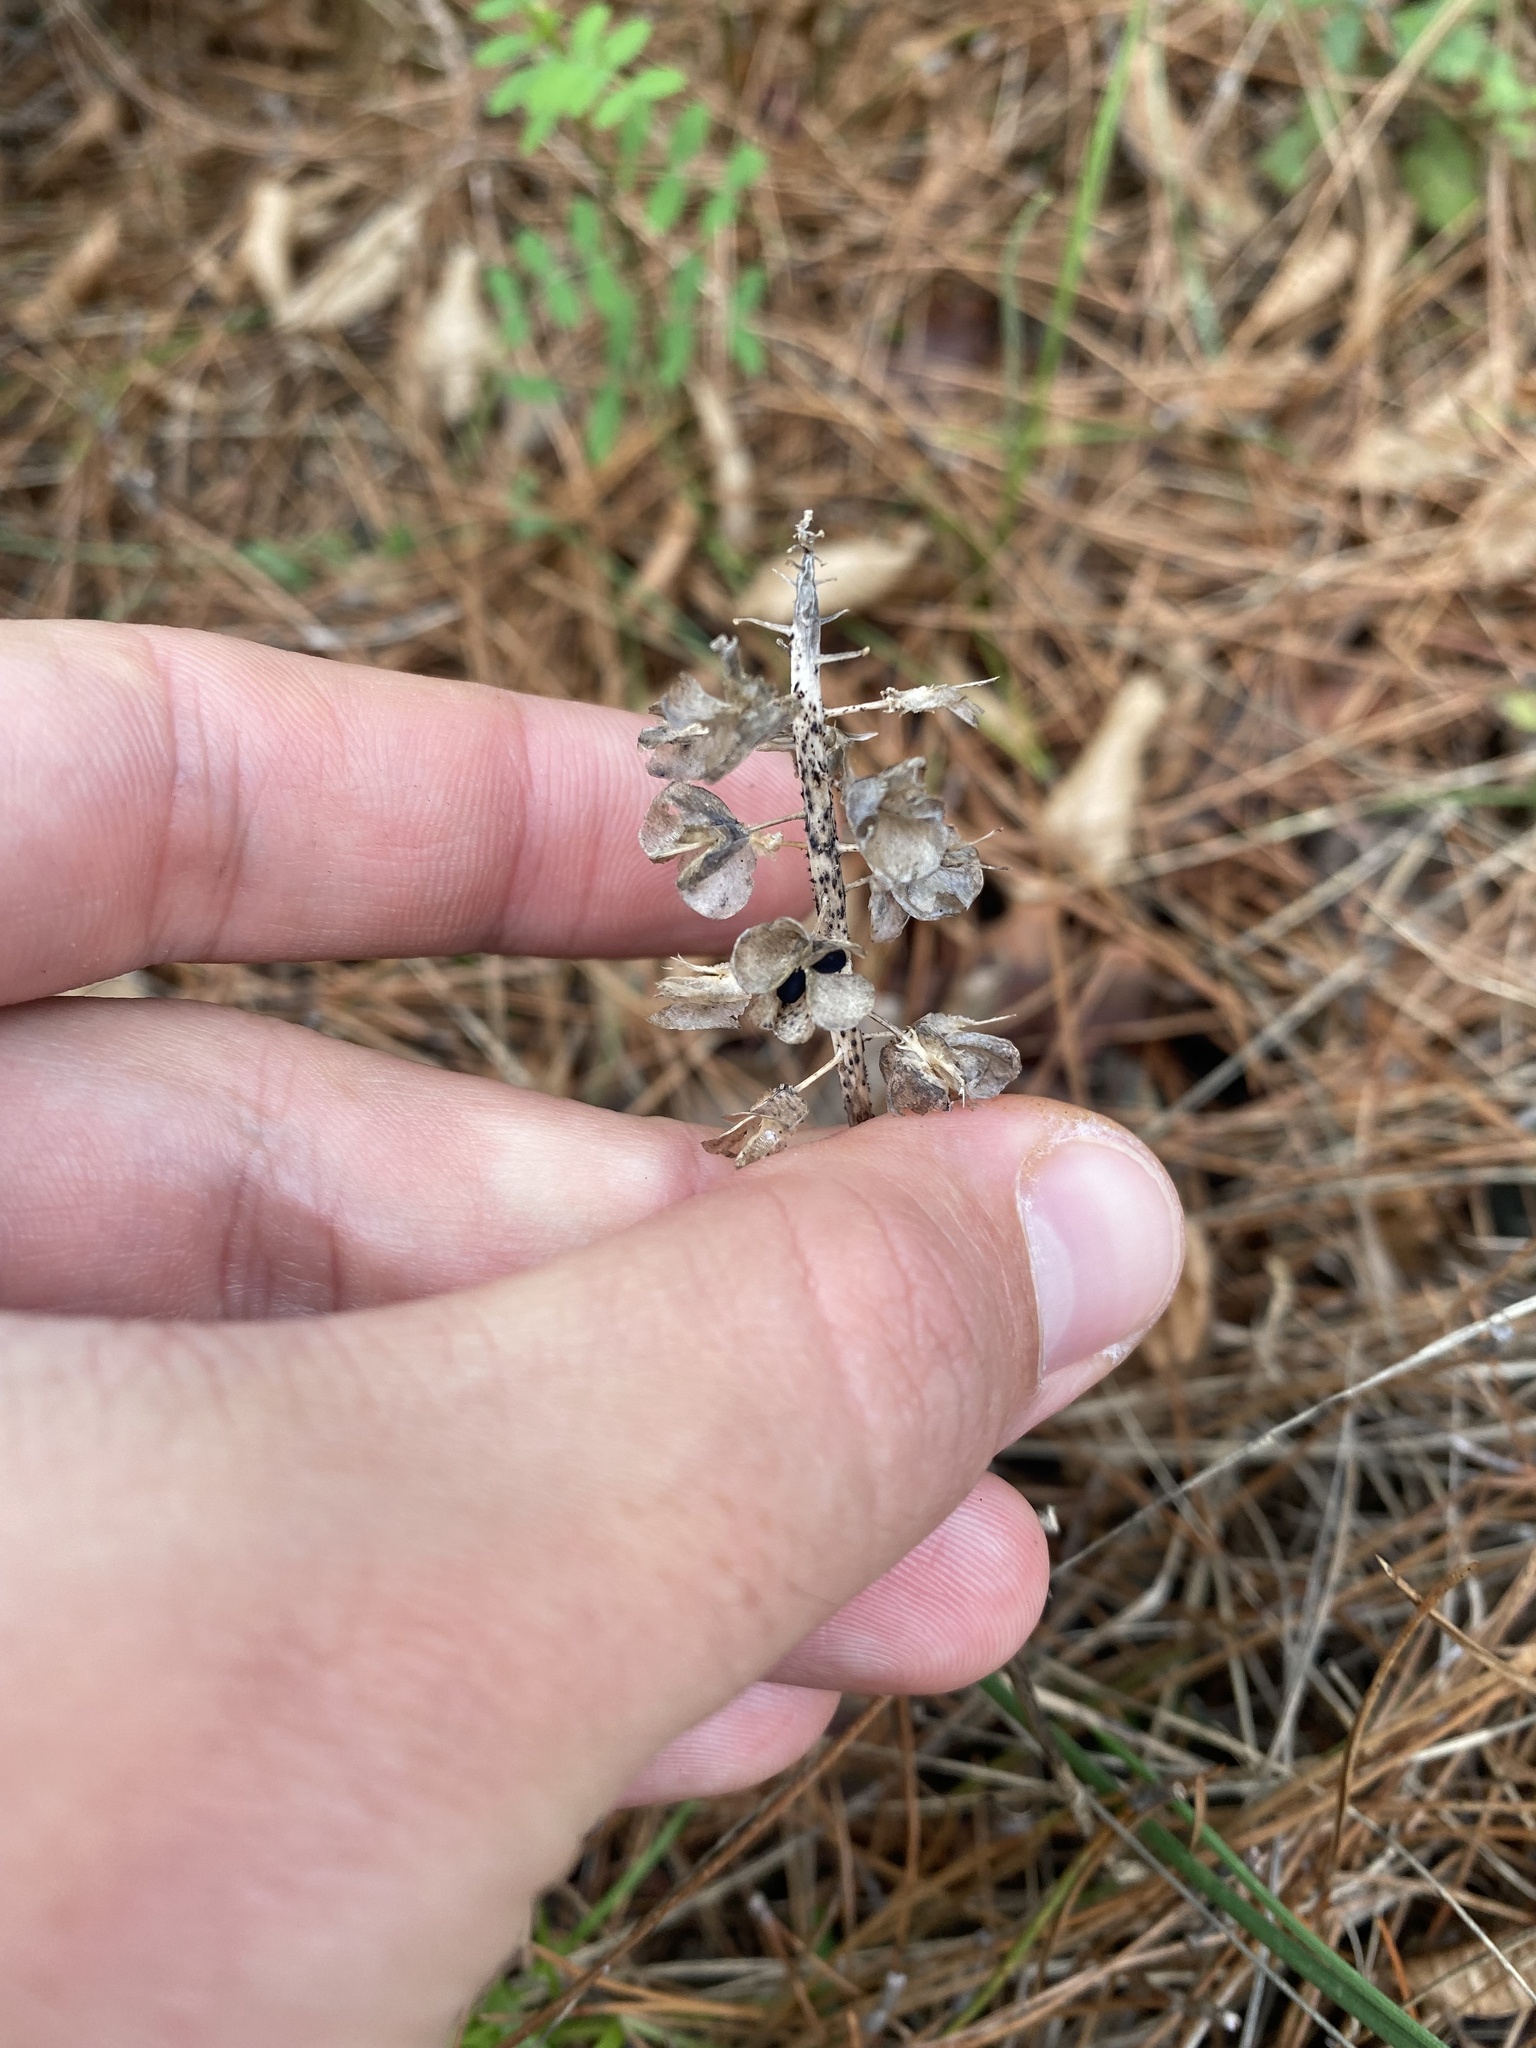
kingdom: Plantae
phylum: Tracheophyta
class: Liliopsida
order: Asparagales
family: Asparagaceae
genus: Muscari
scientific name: Muscari neglectum
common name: Grape-hyacinth
